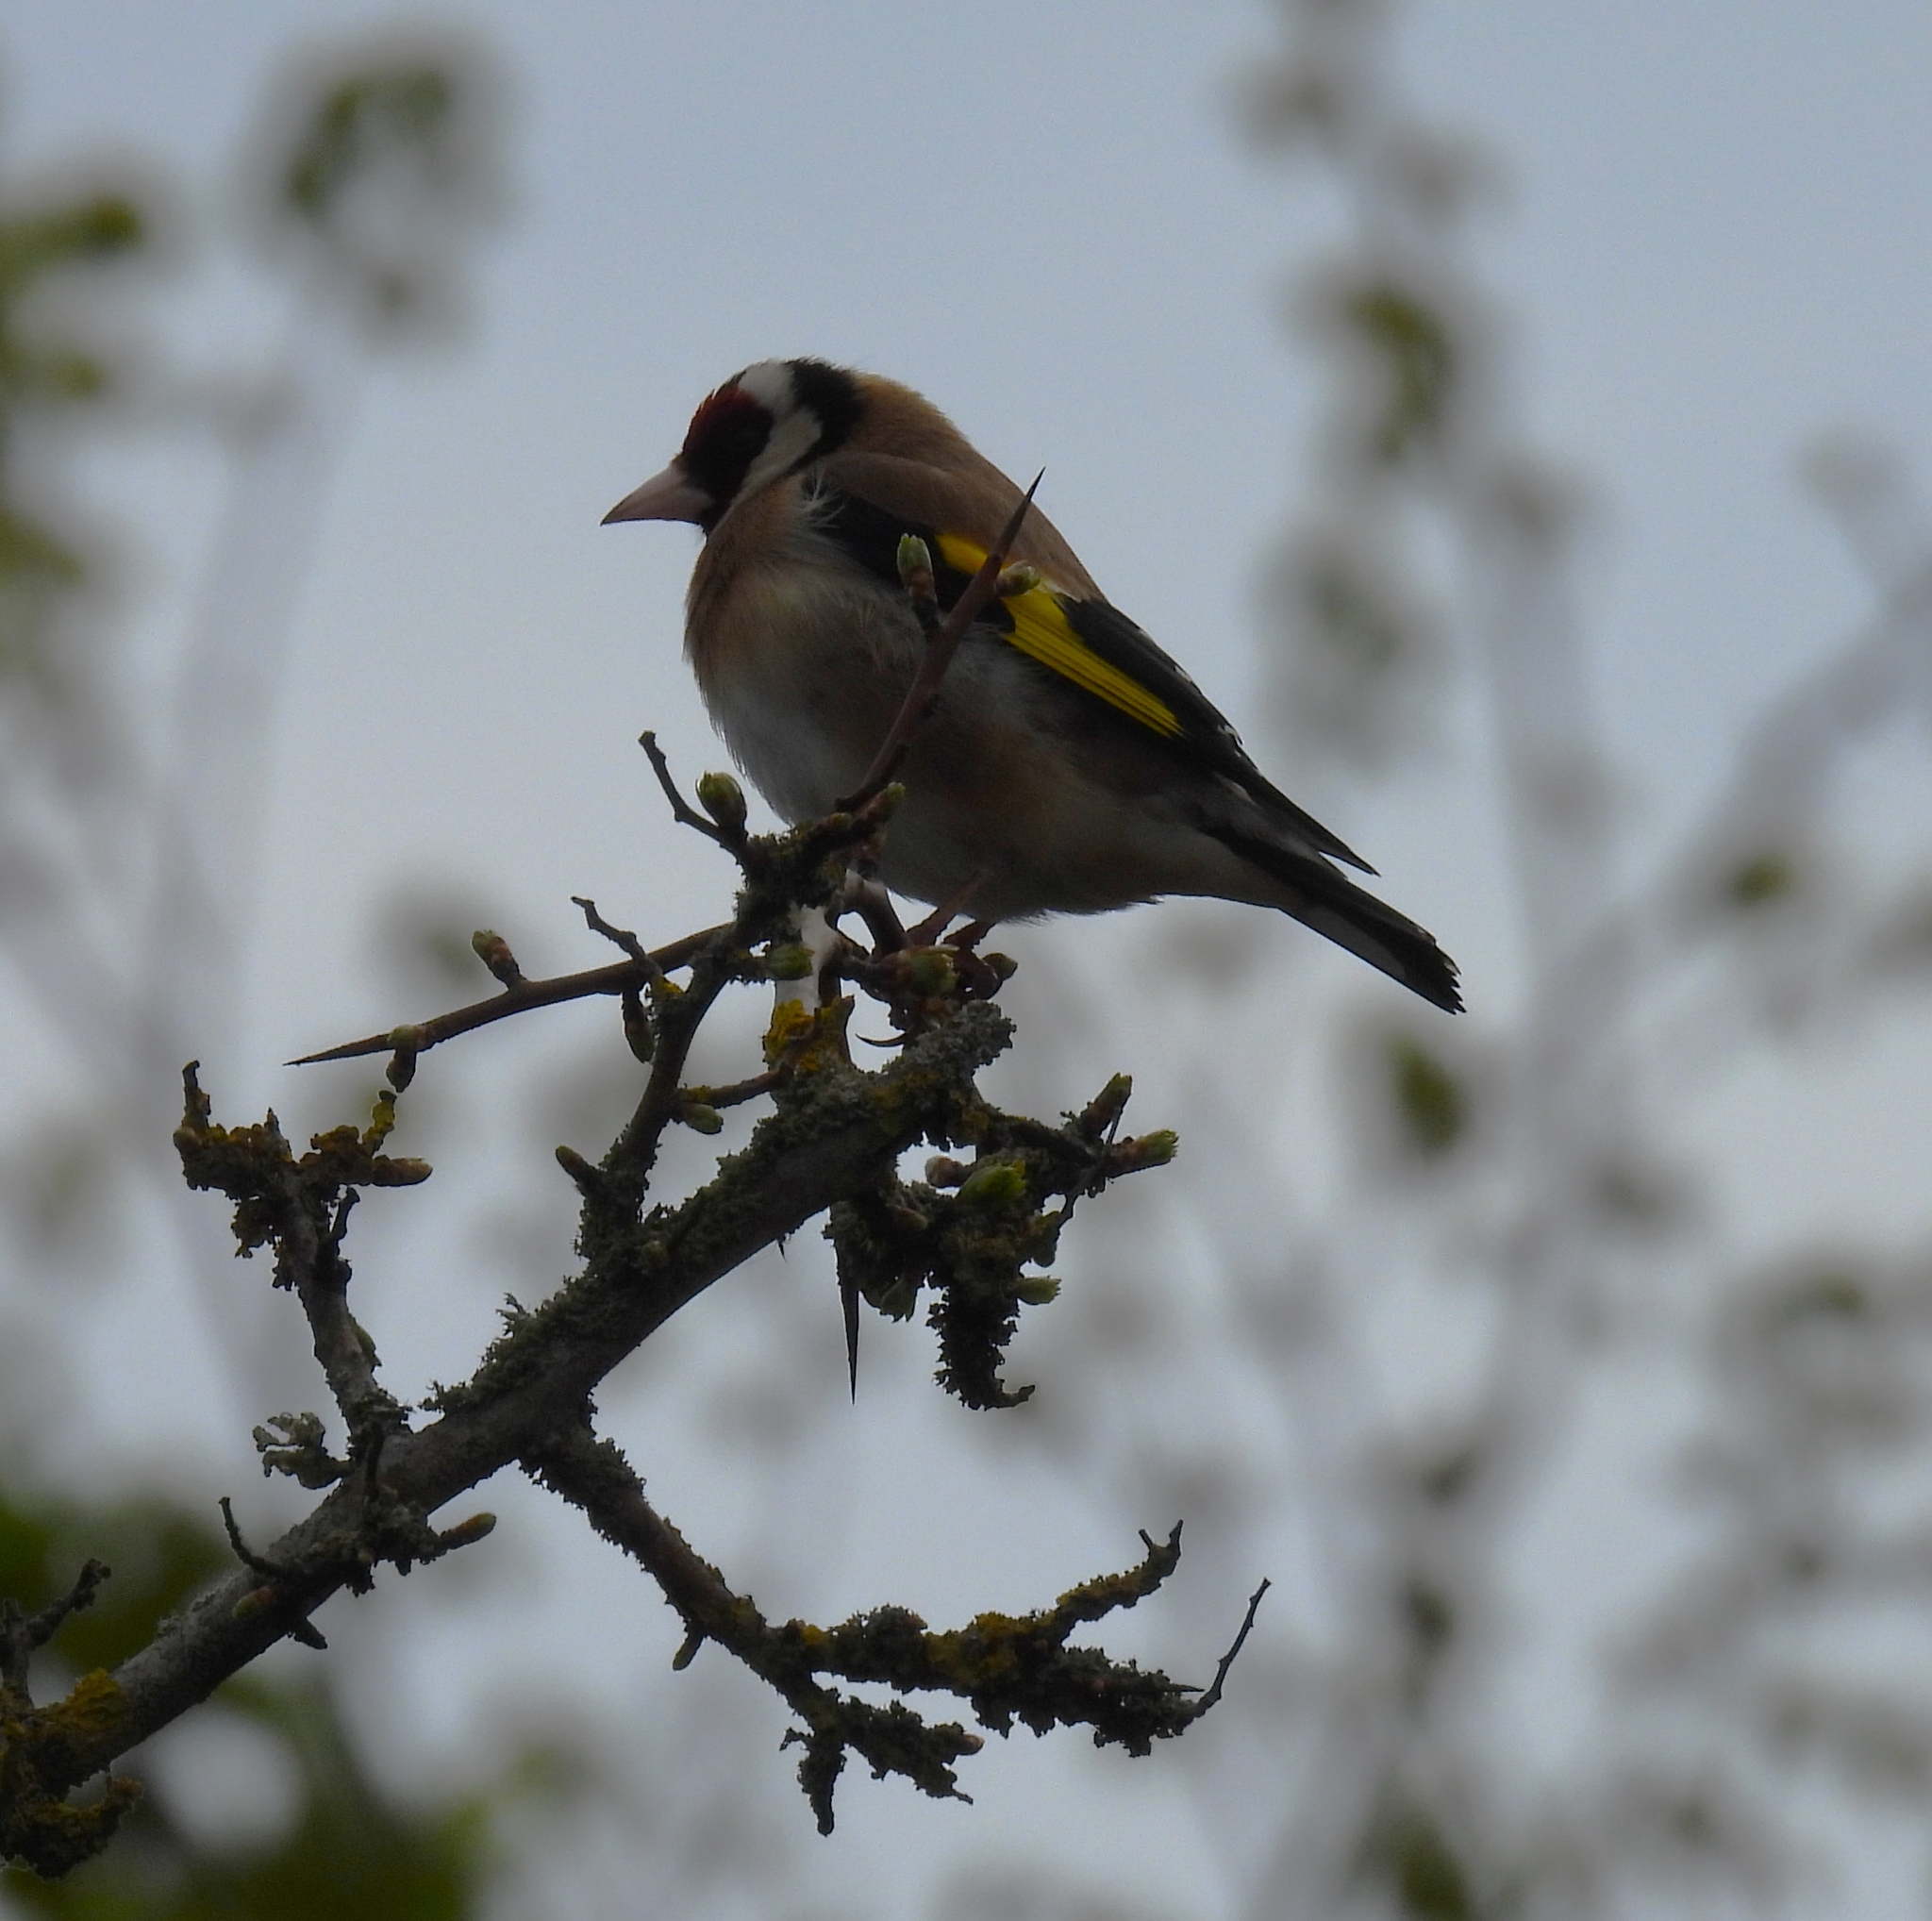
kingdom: Animalia
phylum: Chordata
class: Aves
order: Passeriformes
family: Fringillidae
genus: Carduelis
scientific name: Carduelis carduelis
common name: European goldfinch
